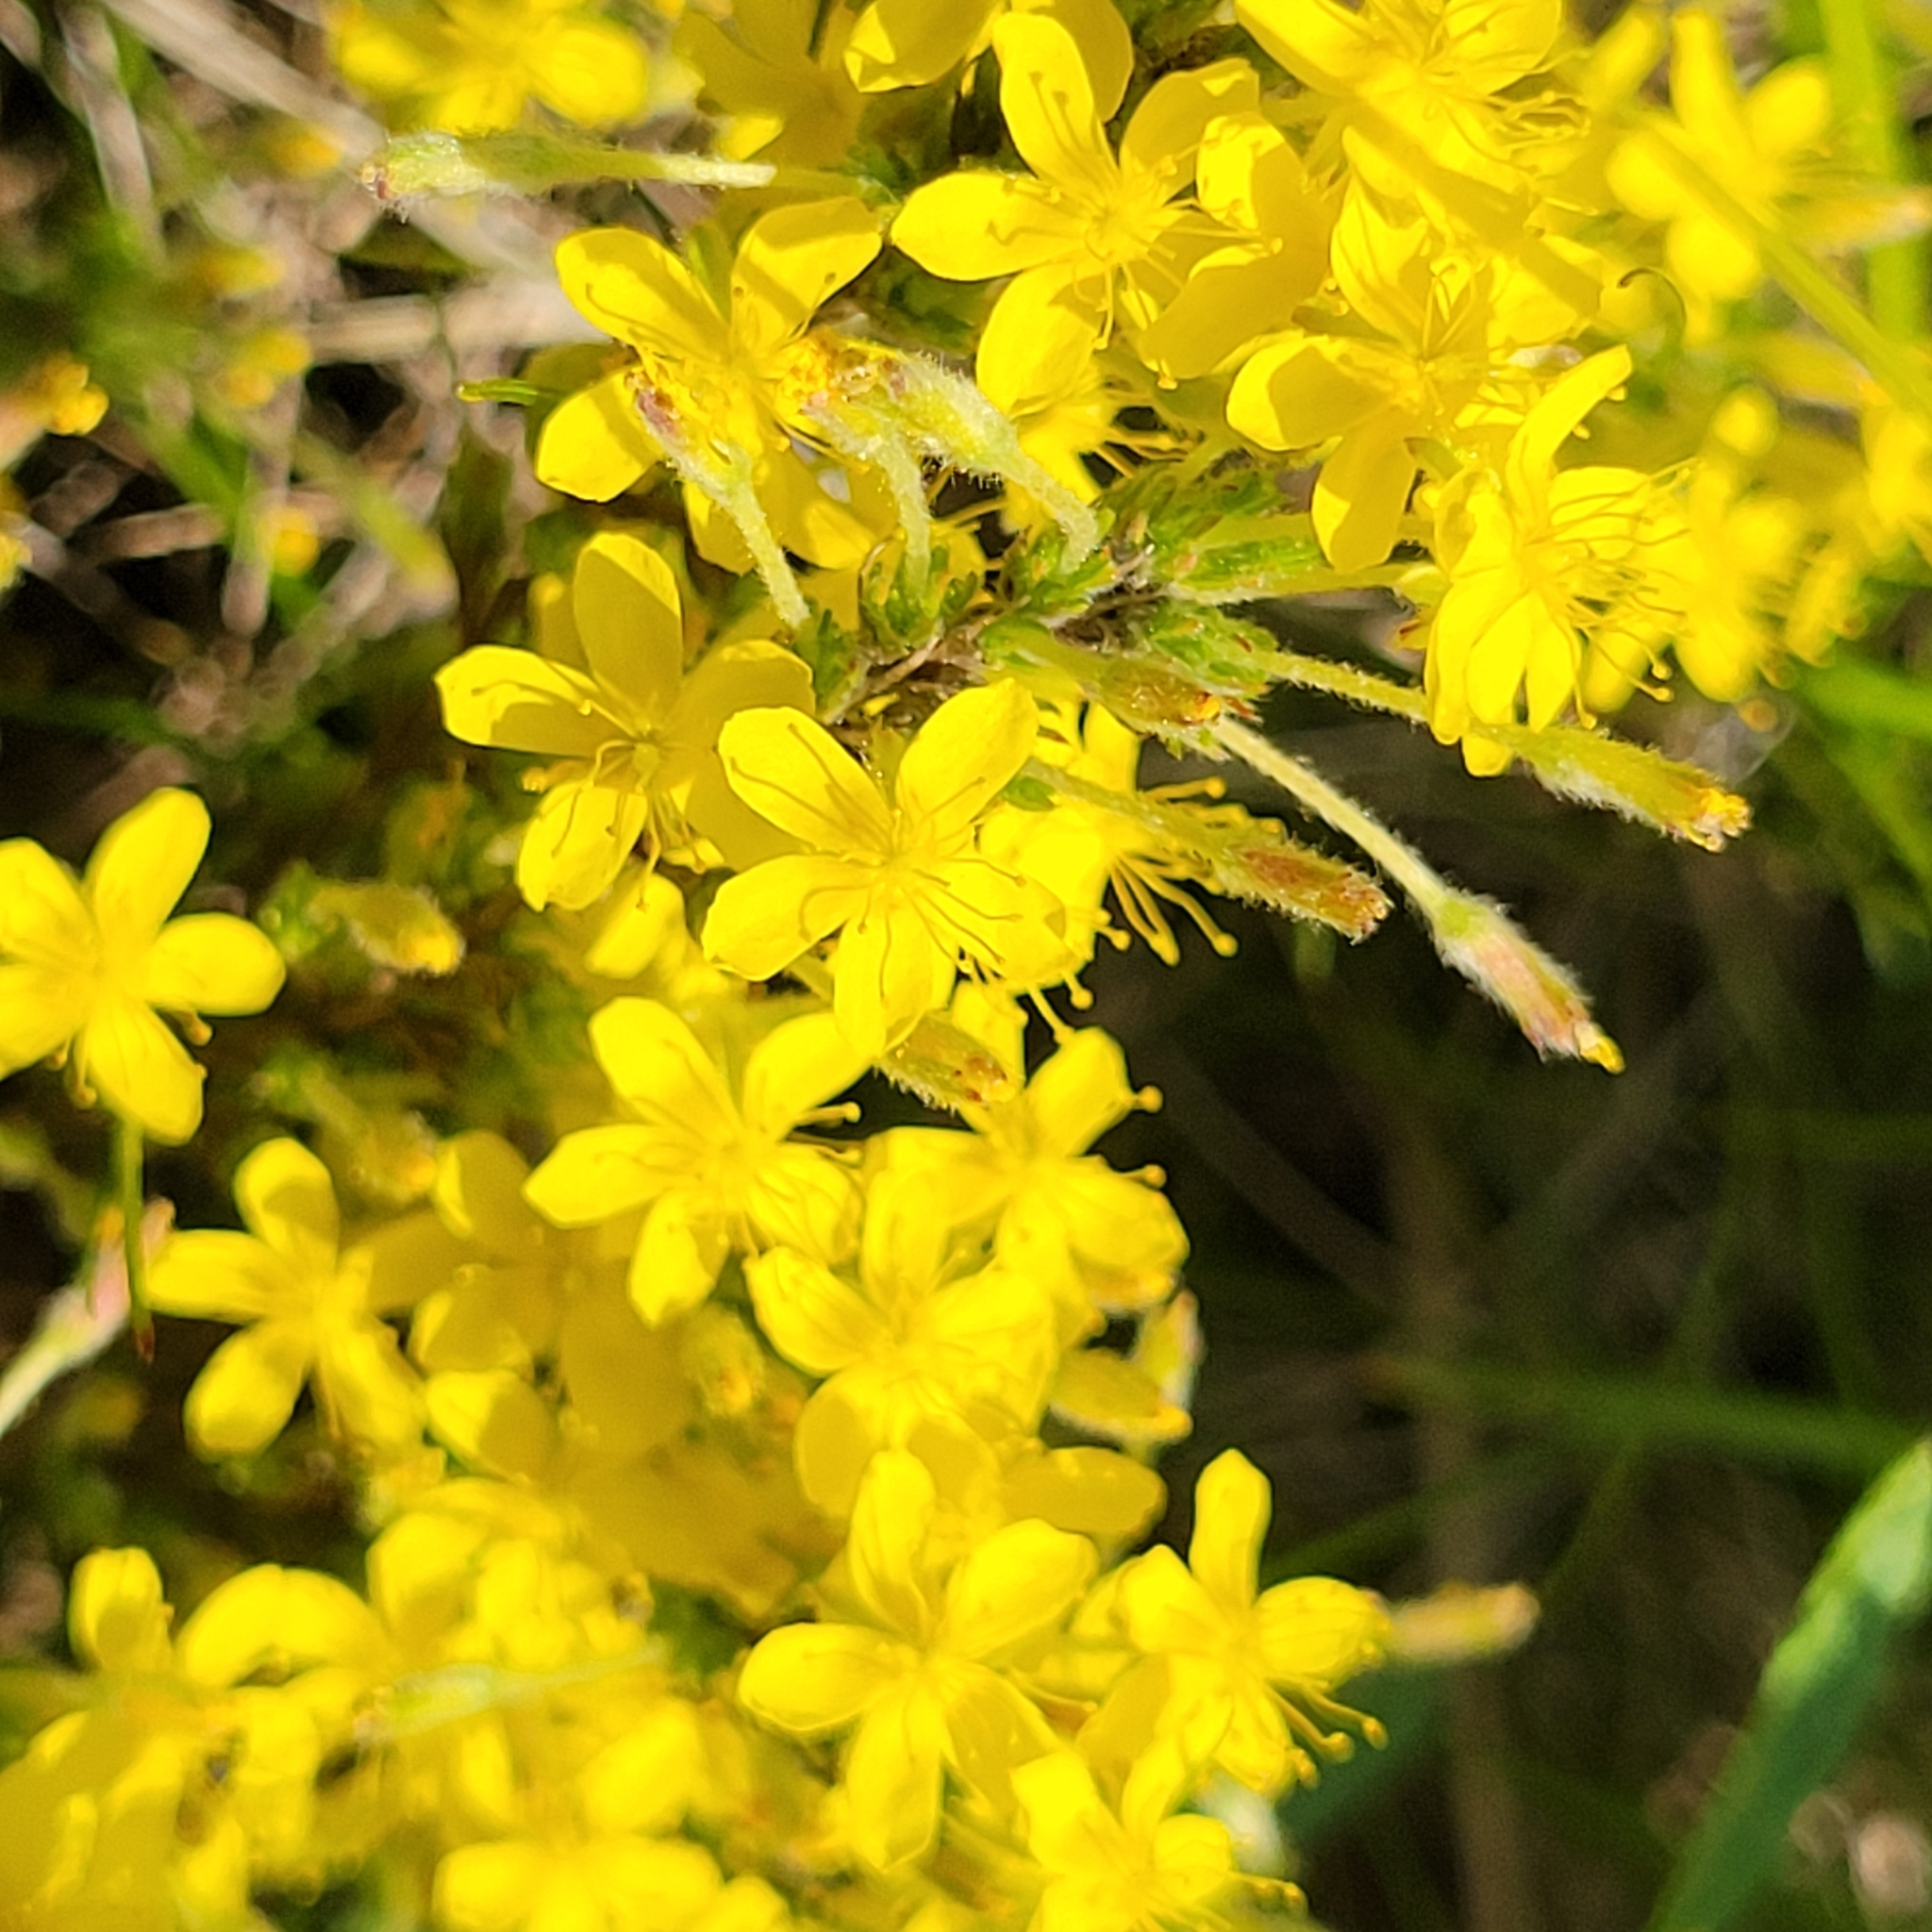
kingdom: Plantae
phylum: Tracheophyta
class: Magnoliopsida
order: Malvales
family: Cistaceae
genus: Hudsonia
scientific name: Hudsonia ericoides
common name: Golden-heather
